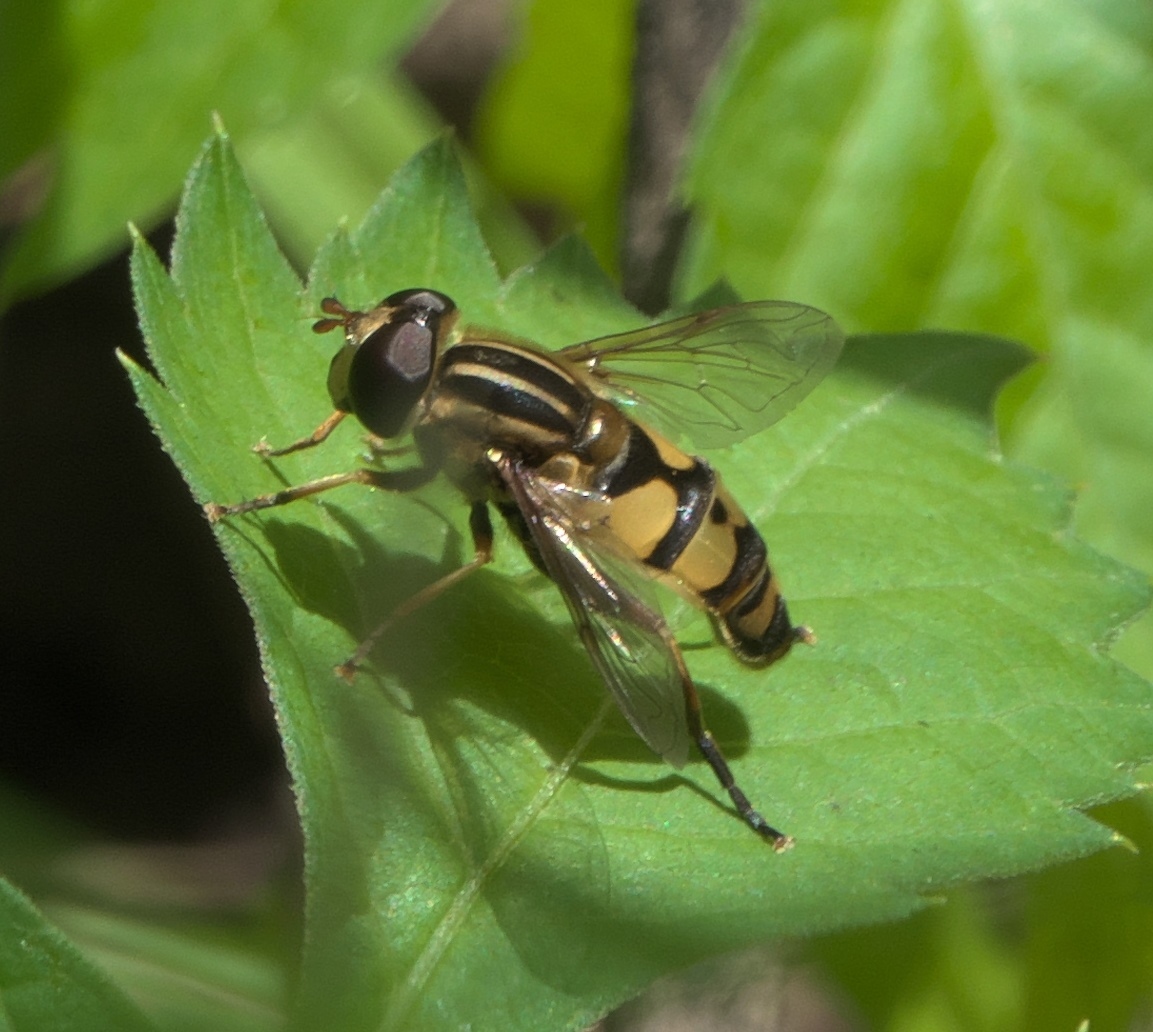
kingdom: Animalia
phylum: Arthropoda
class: Insecta
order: Diptera
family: Syrphidae
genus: Helophilus
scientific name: Helophilus fasciatus
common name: Narrow-headed marsh fly
